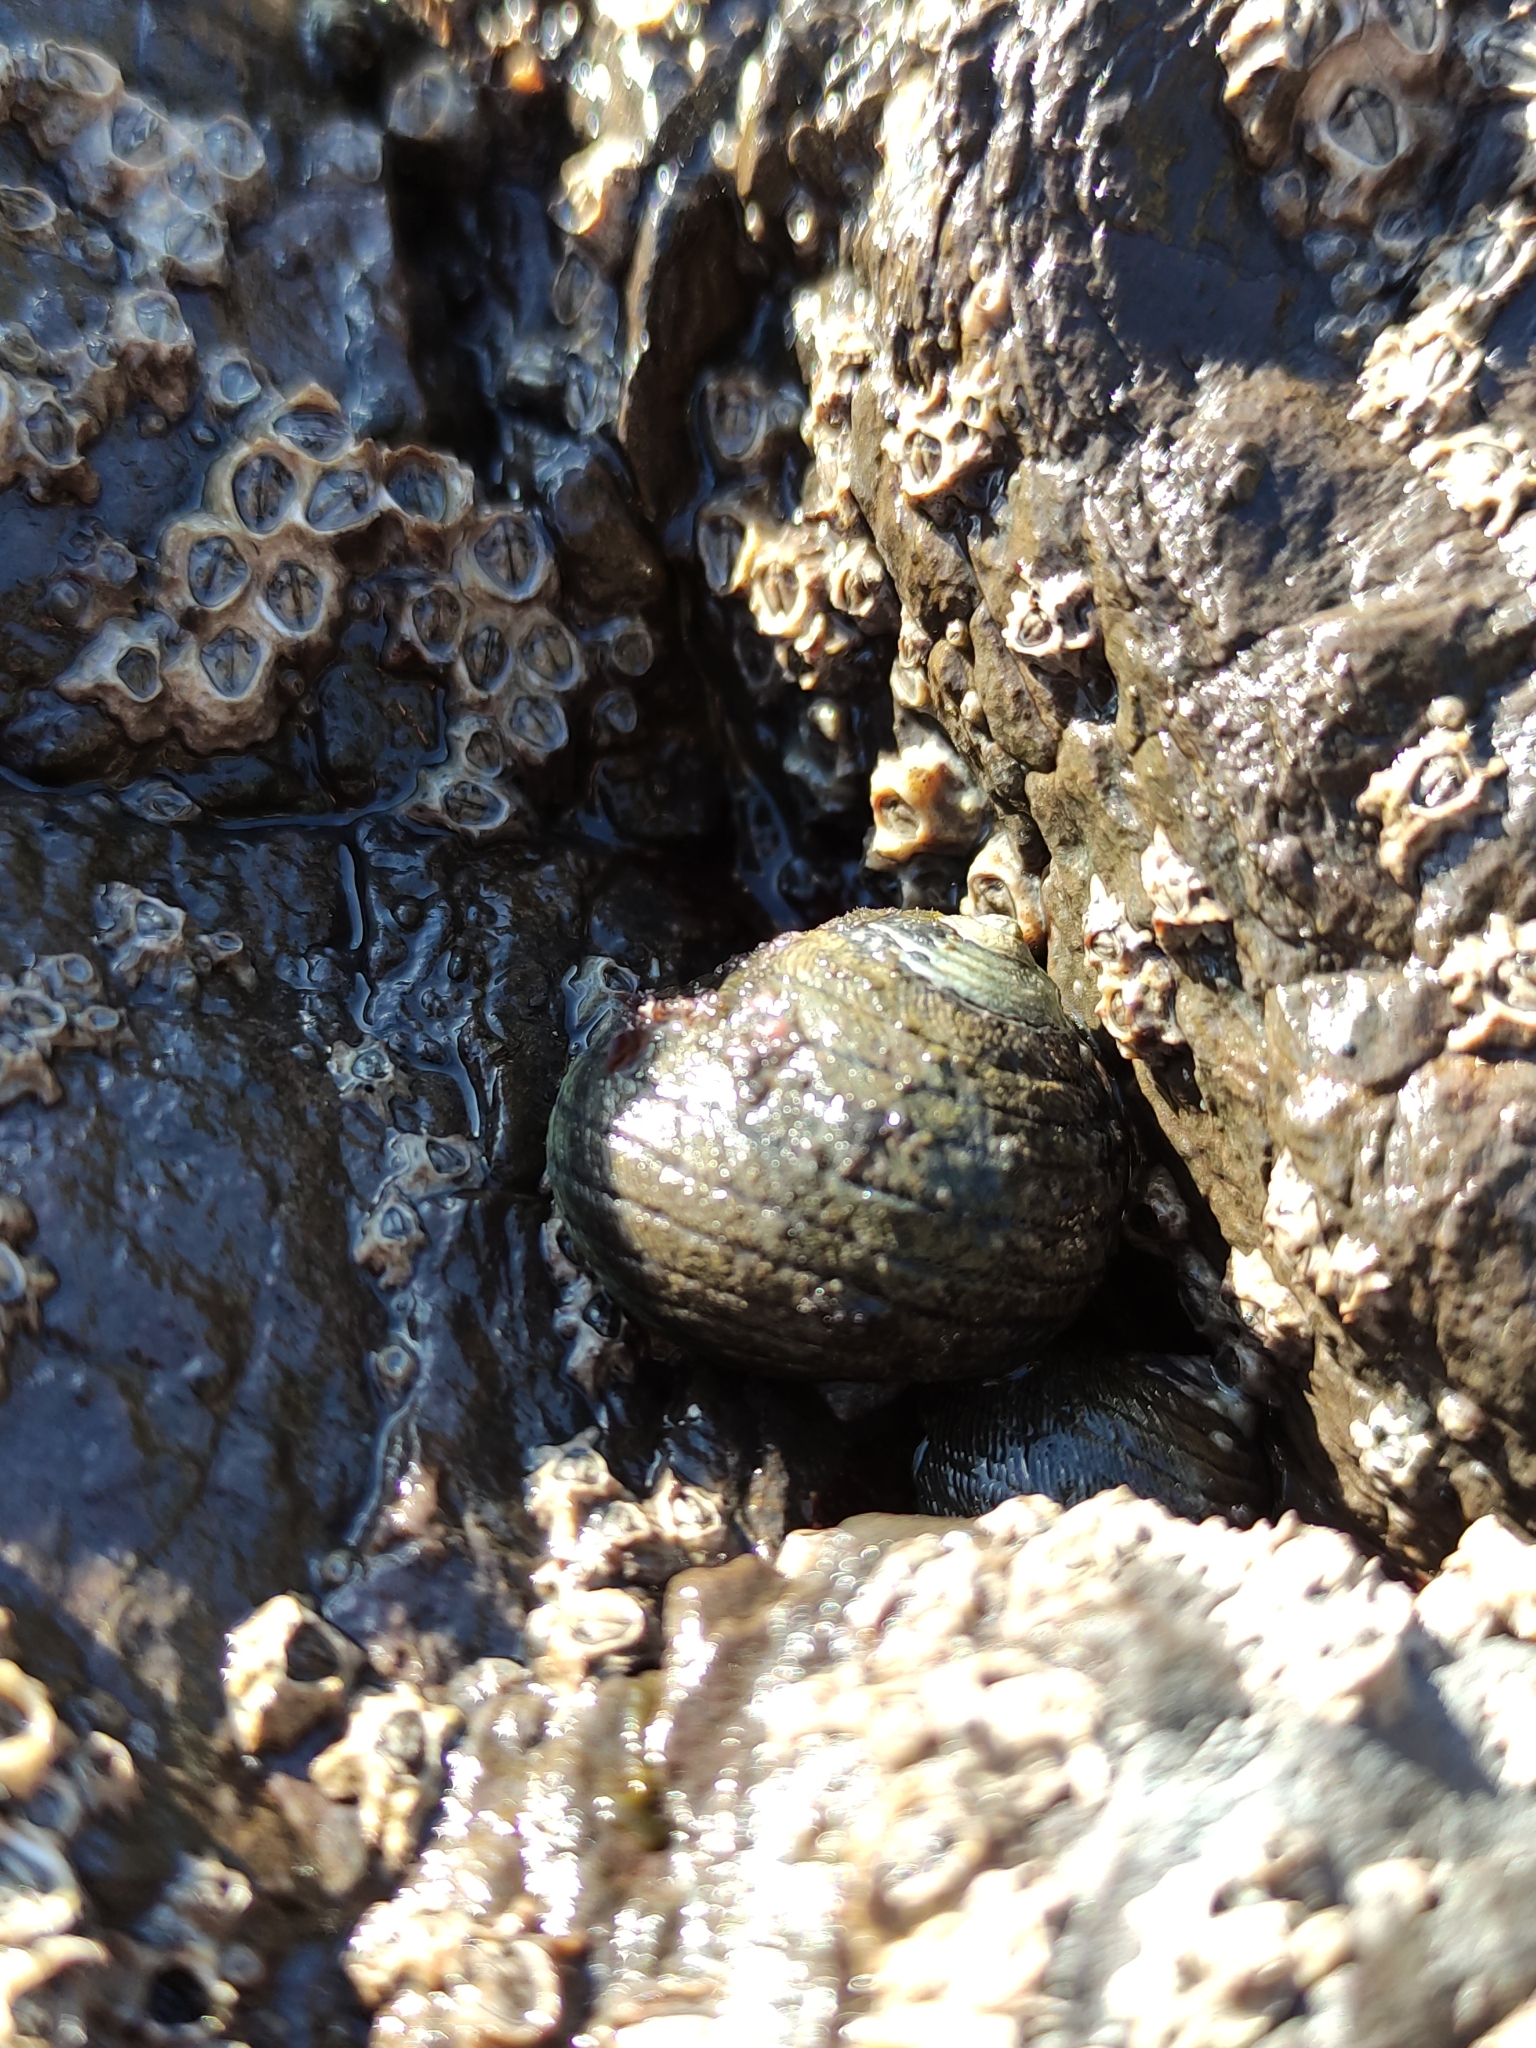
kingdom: Animalia
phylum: Mollusca
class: Gastropoda
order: Trochida
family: Trochidae
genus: Diloma
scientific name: Diloma aethiops
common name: Scorched monodont
